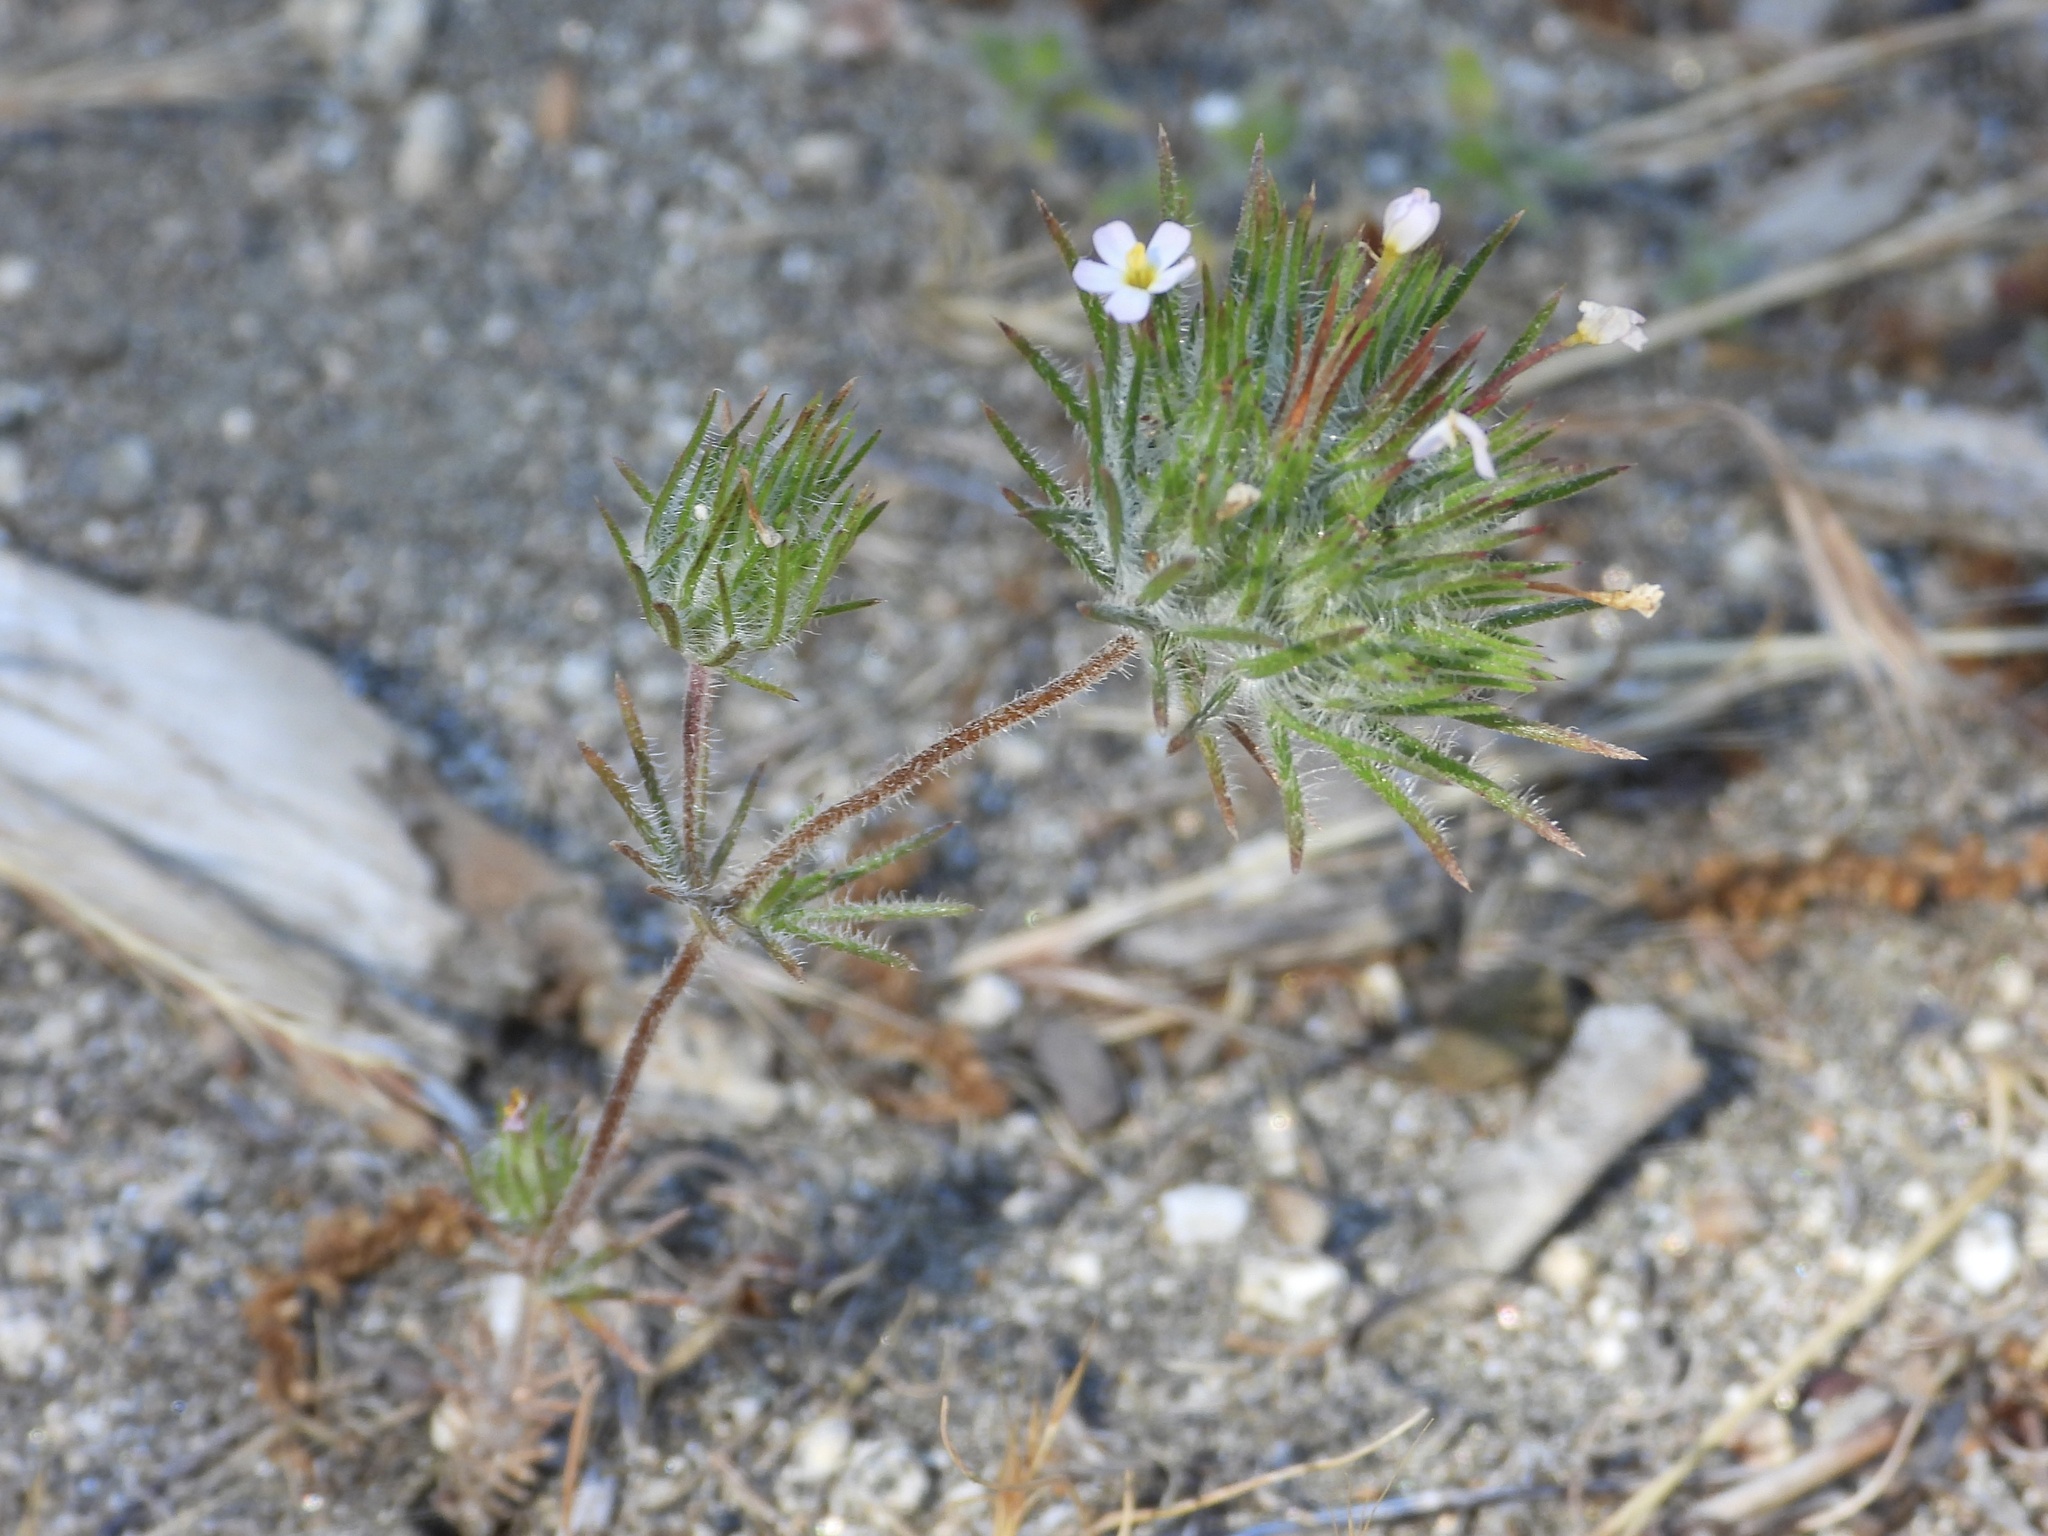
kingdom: Plantae
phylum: Tracheophyta
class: Magnoliopsida
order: Ericales
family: Polemoniaceae
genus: Leptosiphon
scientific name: Leptosiphon ciliatus
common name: Whiskerbrush
